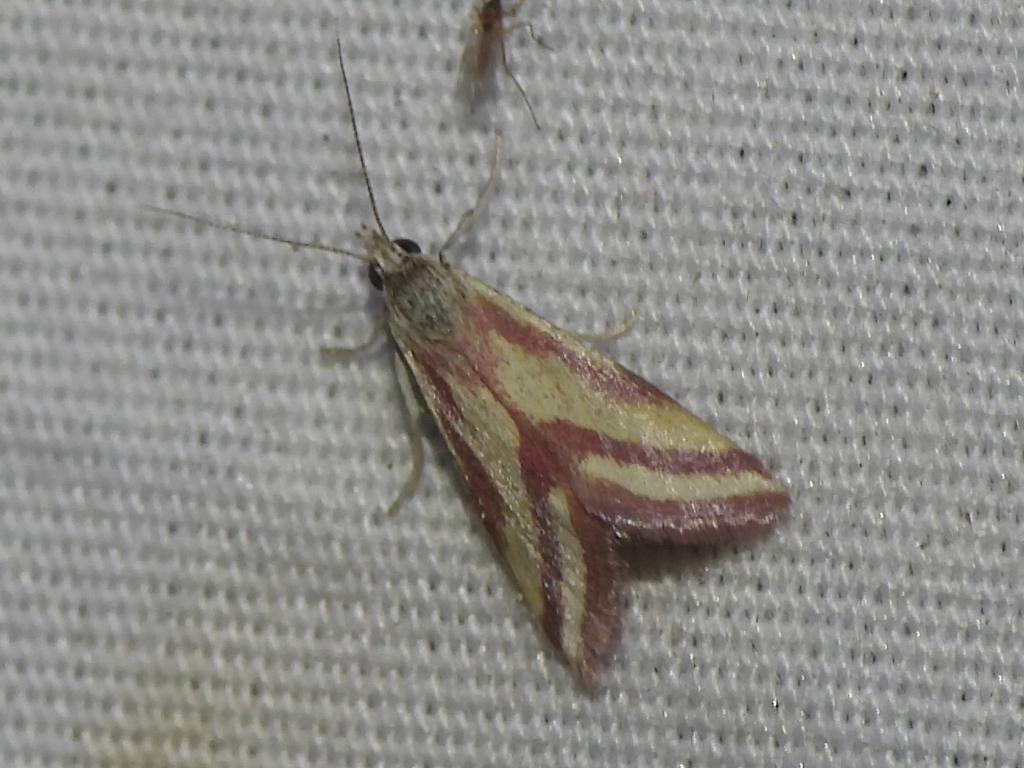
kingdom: Animalia
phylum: Arthropoda
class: Insecta
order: Lepidoptera
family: Crambidae
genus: Microtheoris
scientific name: Microtheoris vibicalis
